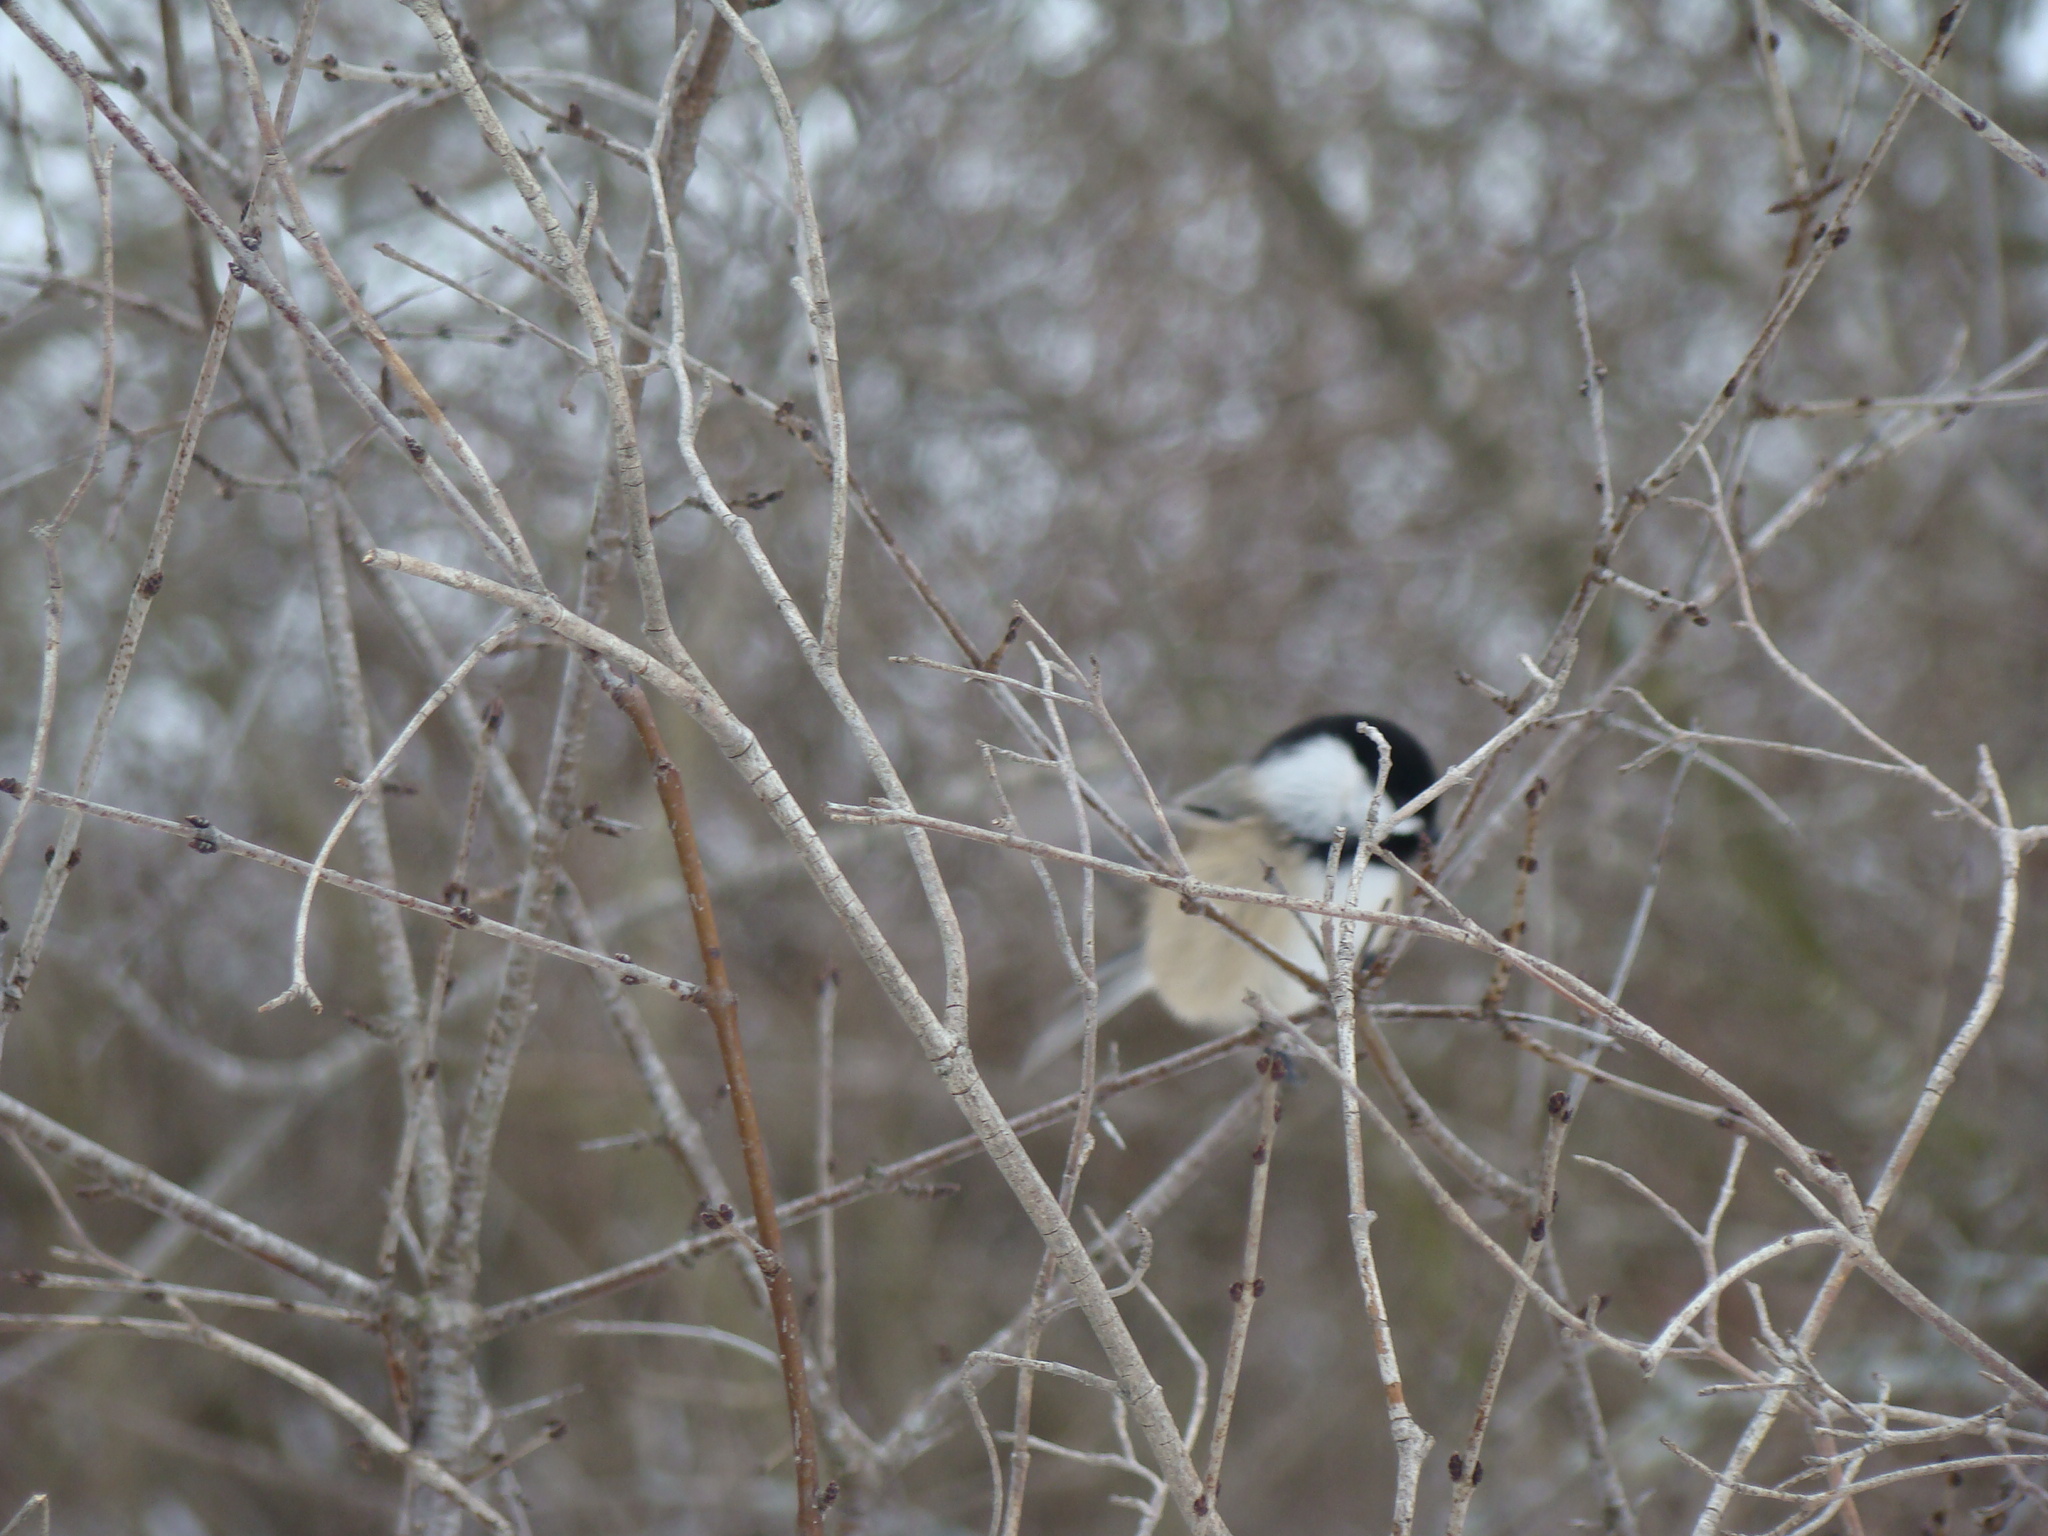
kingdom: Animalia
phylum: Chordata
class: Aves
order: Passeriformes
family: Paridae
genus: Poecile
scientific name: Poecile atricapillus
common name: Black-capped chickadee
